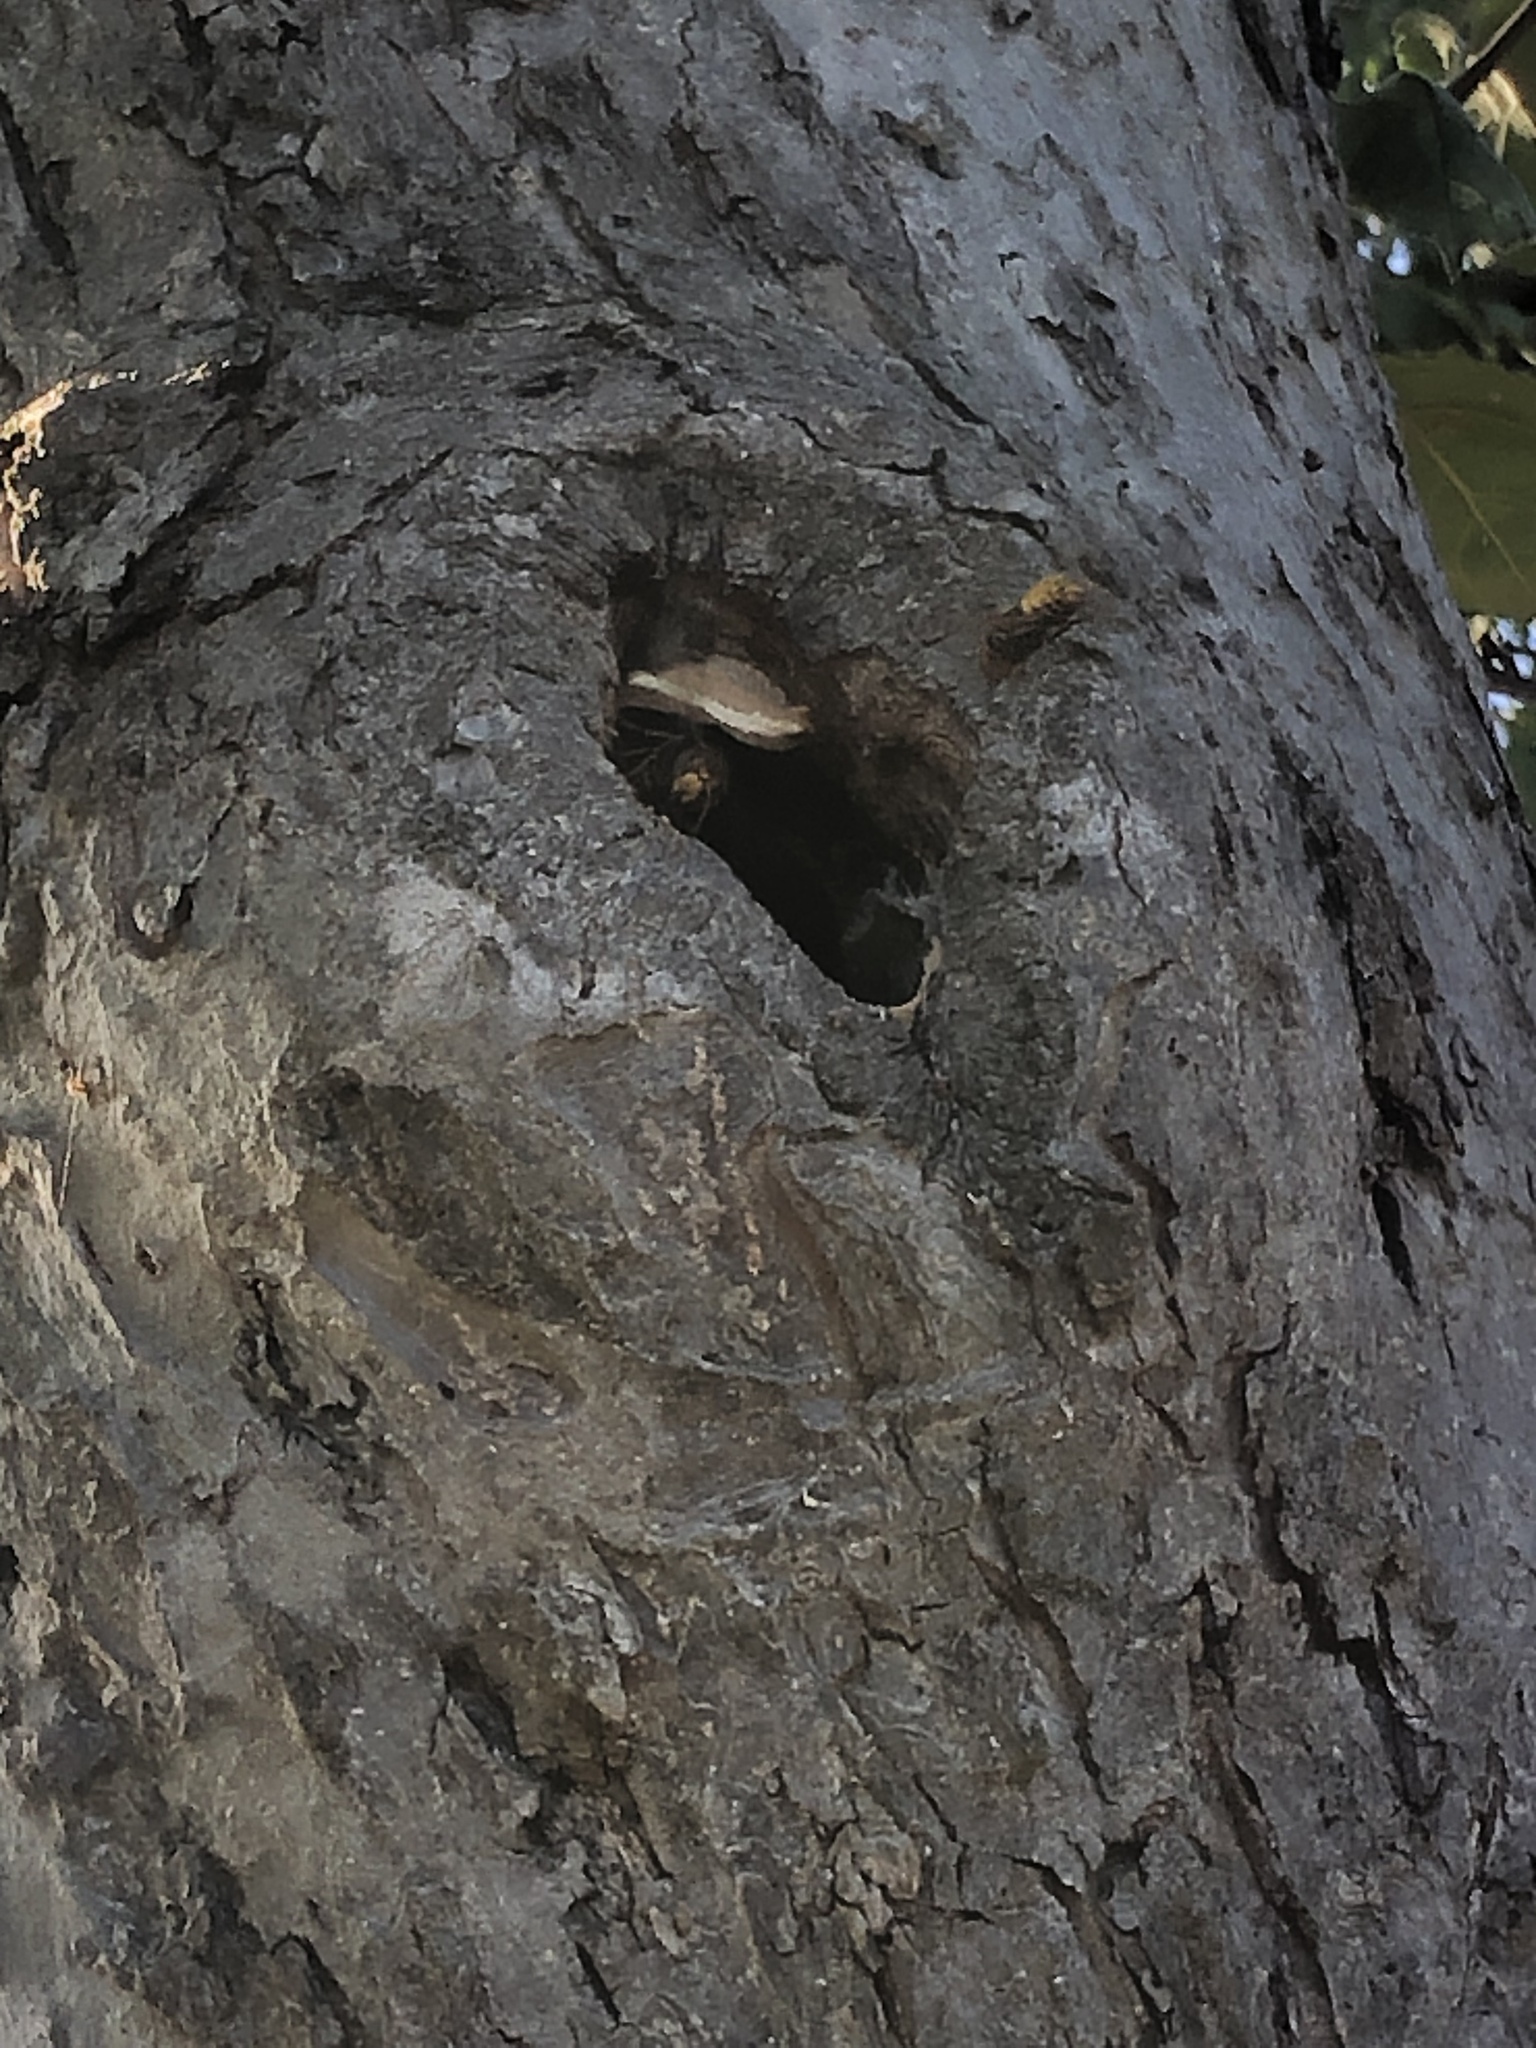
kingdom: Animalia
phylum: Arthropoda
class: Insecta
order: Hymenoptera
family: Vespidae
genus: Vespa
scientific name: Vespa crabro
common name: Hornet
